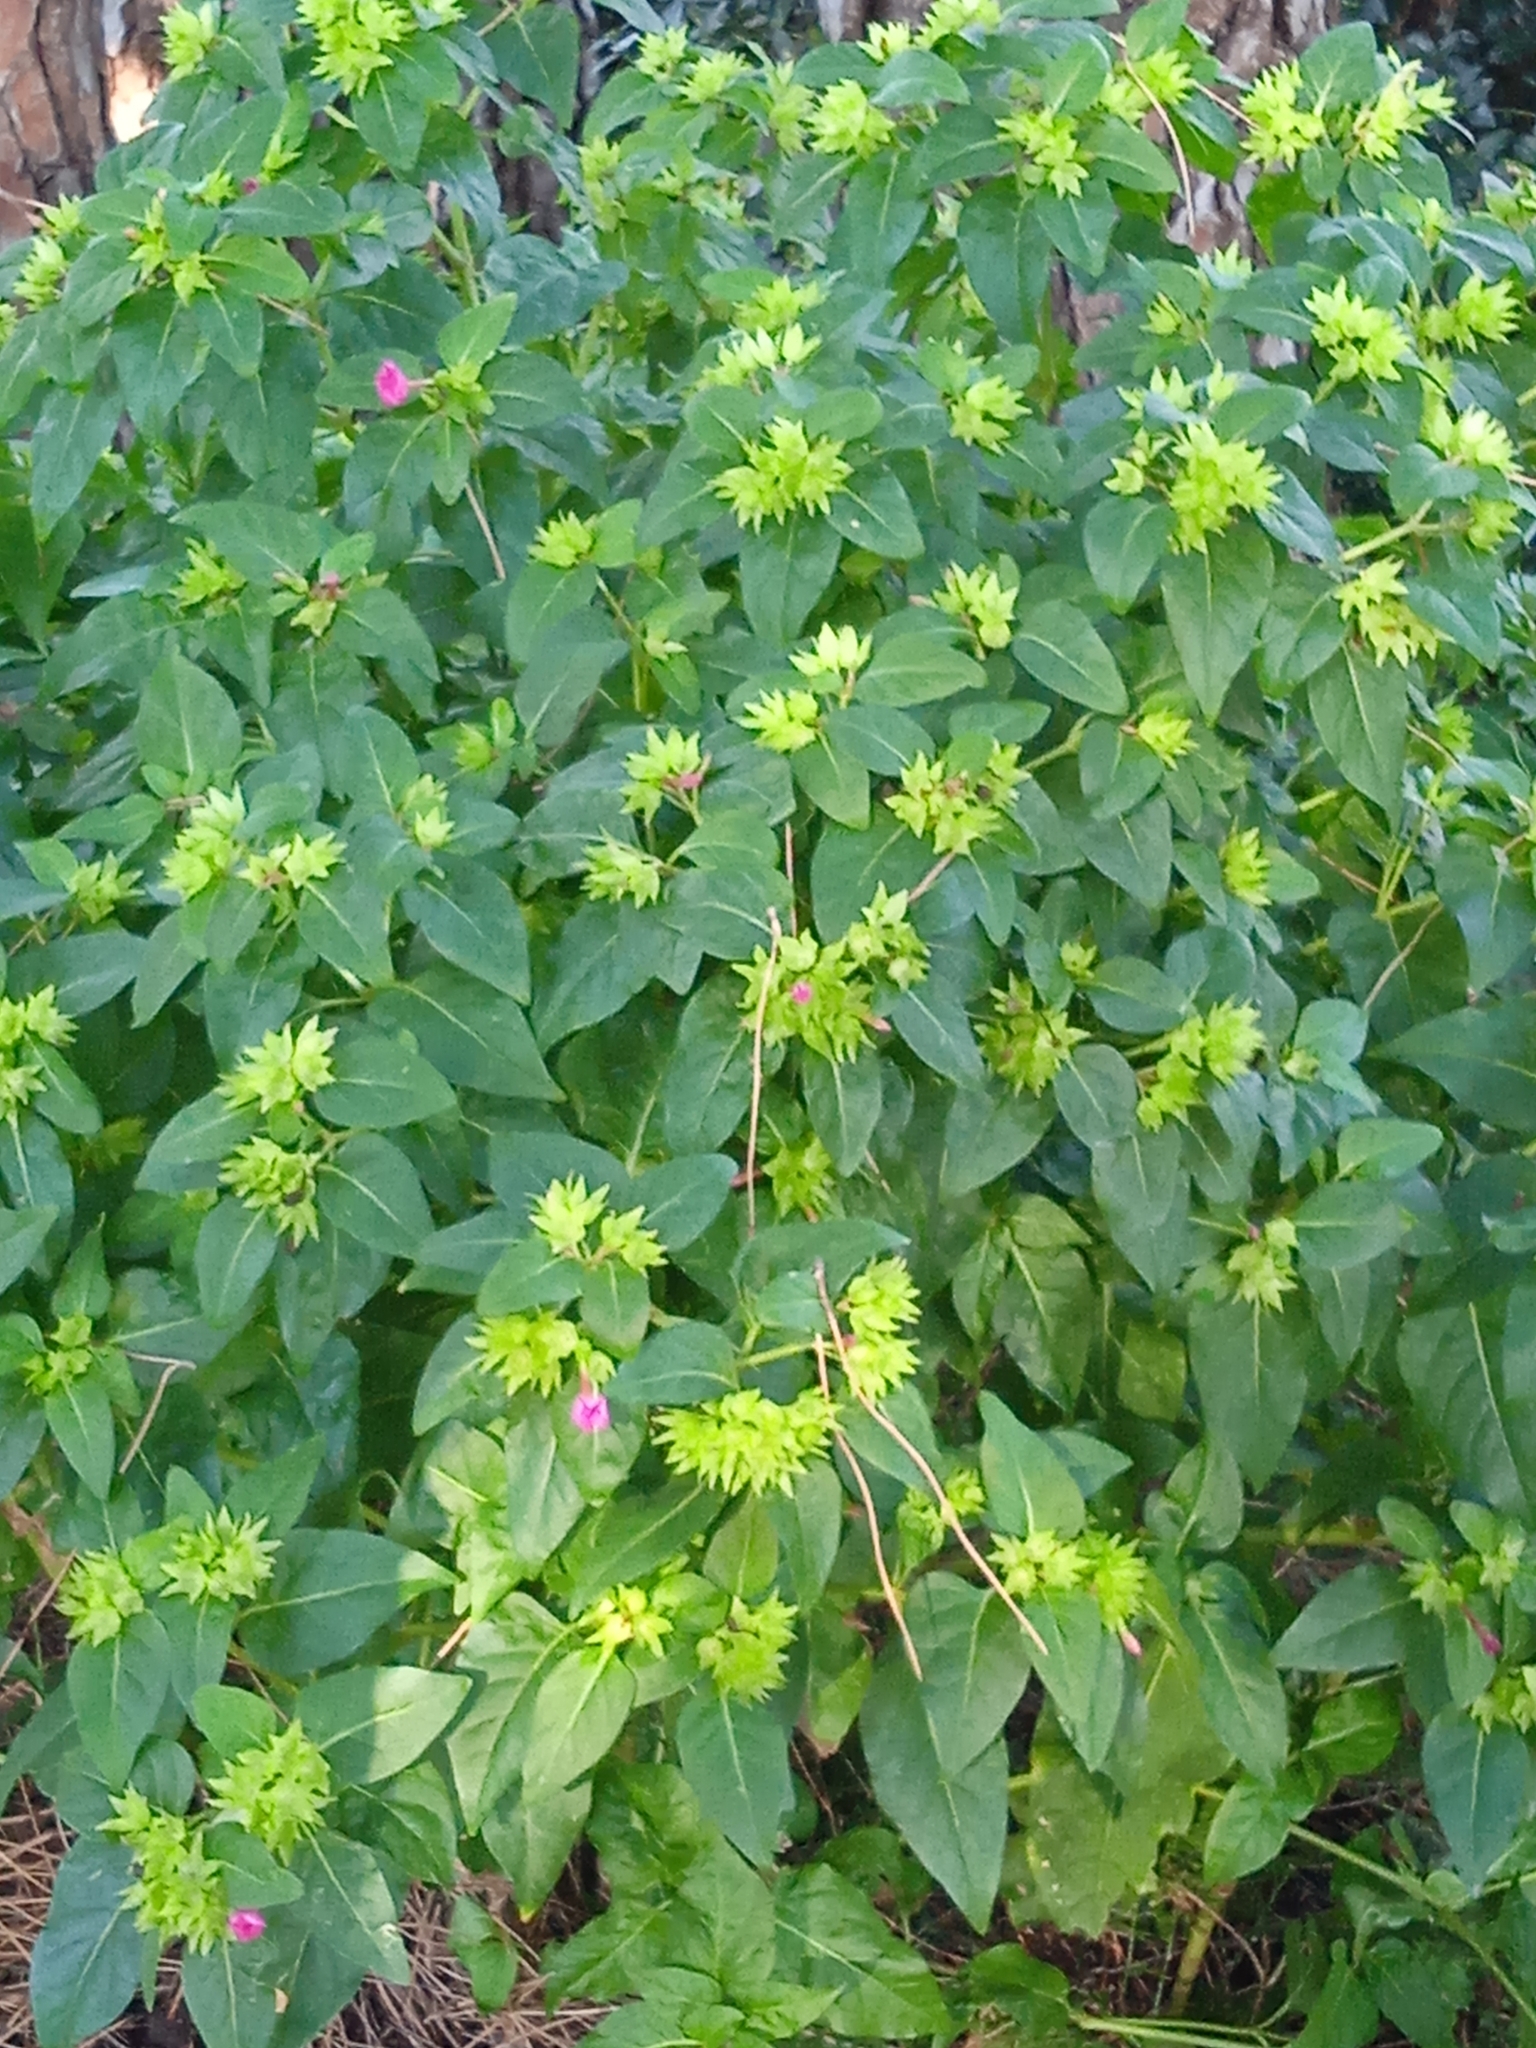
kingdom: Plantae
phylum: Tracheophyta
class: Magnoliopsida
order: Caryophyllales
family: Nyctaginaceae
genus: Mirabilis
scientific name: Mirabilis jalapa
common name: Marvel-of-peru
